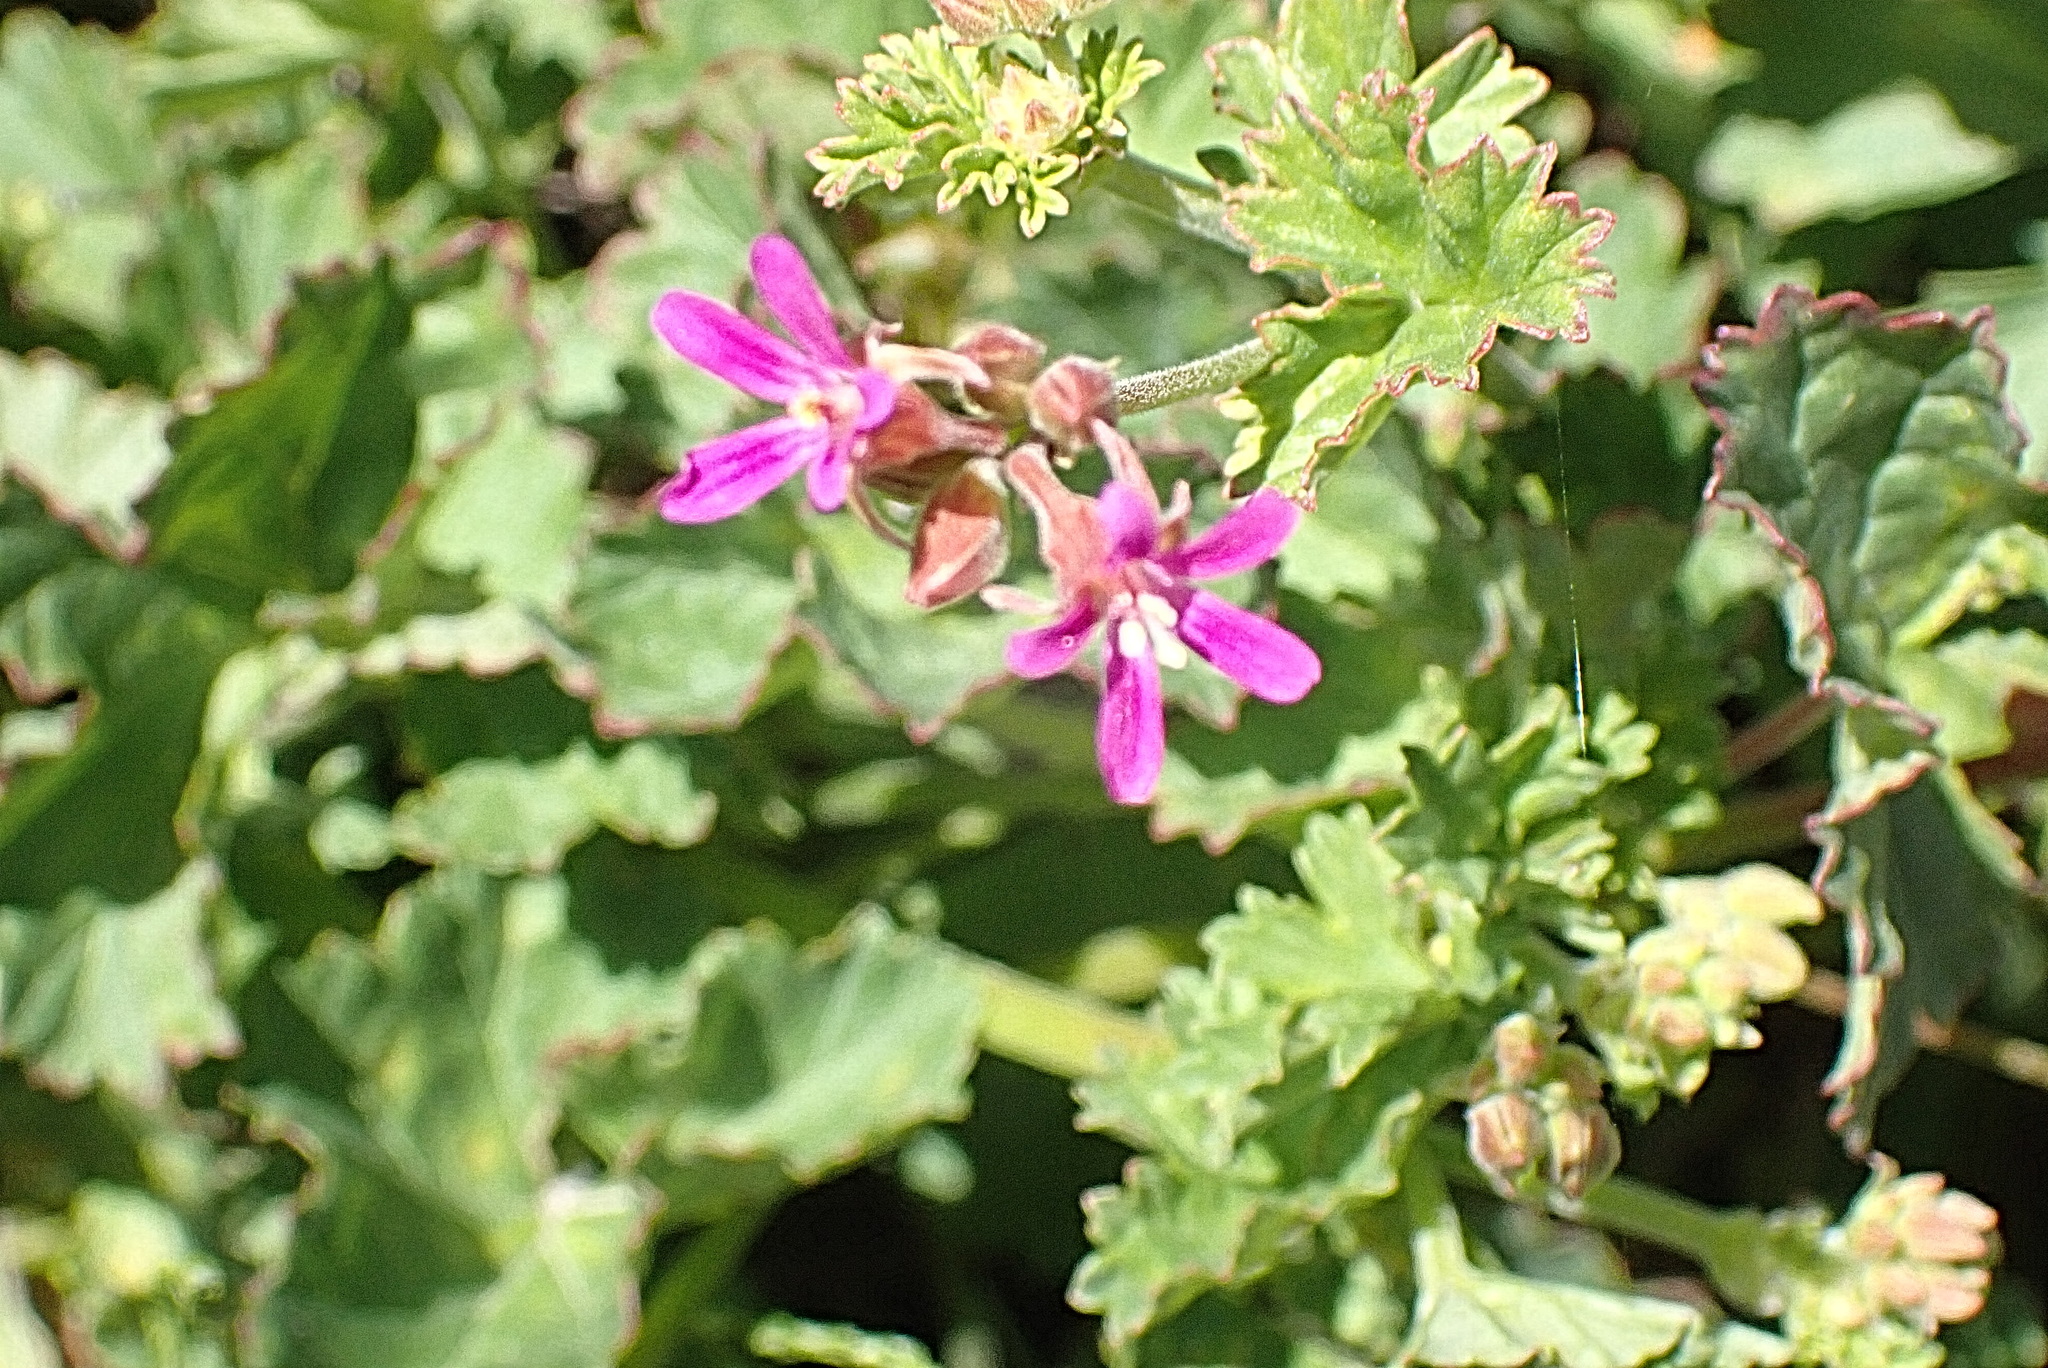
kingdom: Plantae
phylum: Tracheophyta
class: Magnoliopsida
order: Geraniales
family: Geraniaceae
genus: Pelargonium
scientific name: Pelargonium grossularioides
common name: Gooseberry geranium
